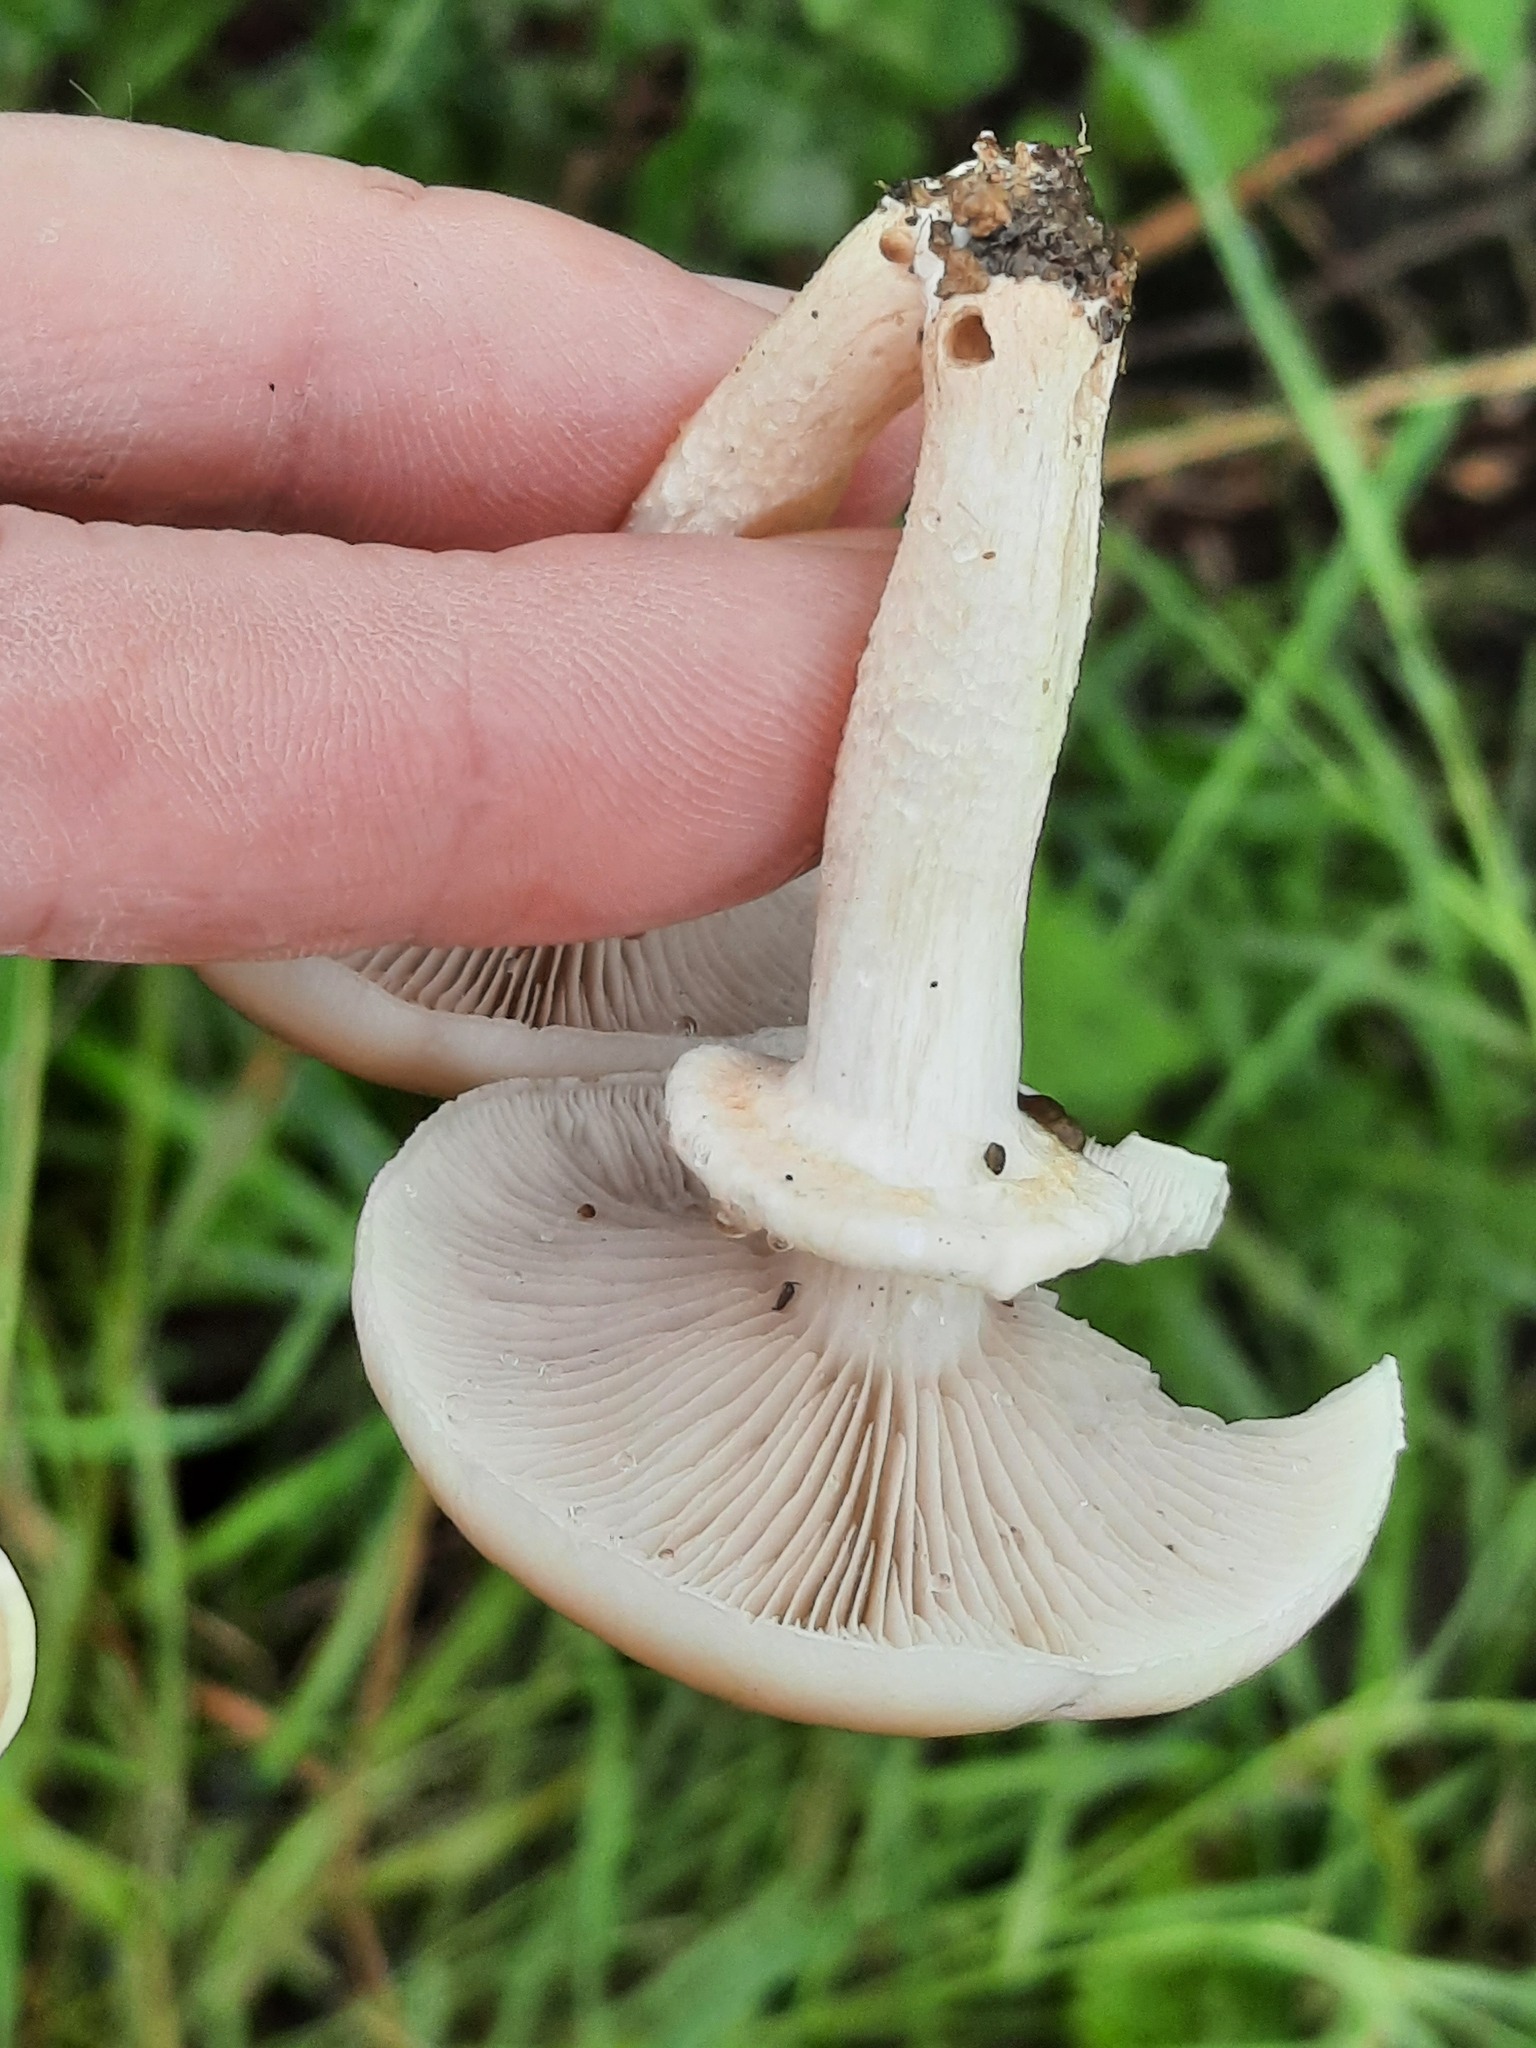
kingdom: Fungi
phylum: Basidiomycota
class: Agaricomycetes
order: Agaricales
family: Tubariaceae
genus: Cyclocybe
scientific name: Cyclocybe cylindracea
